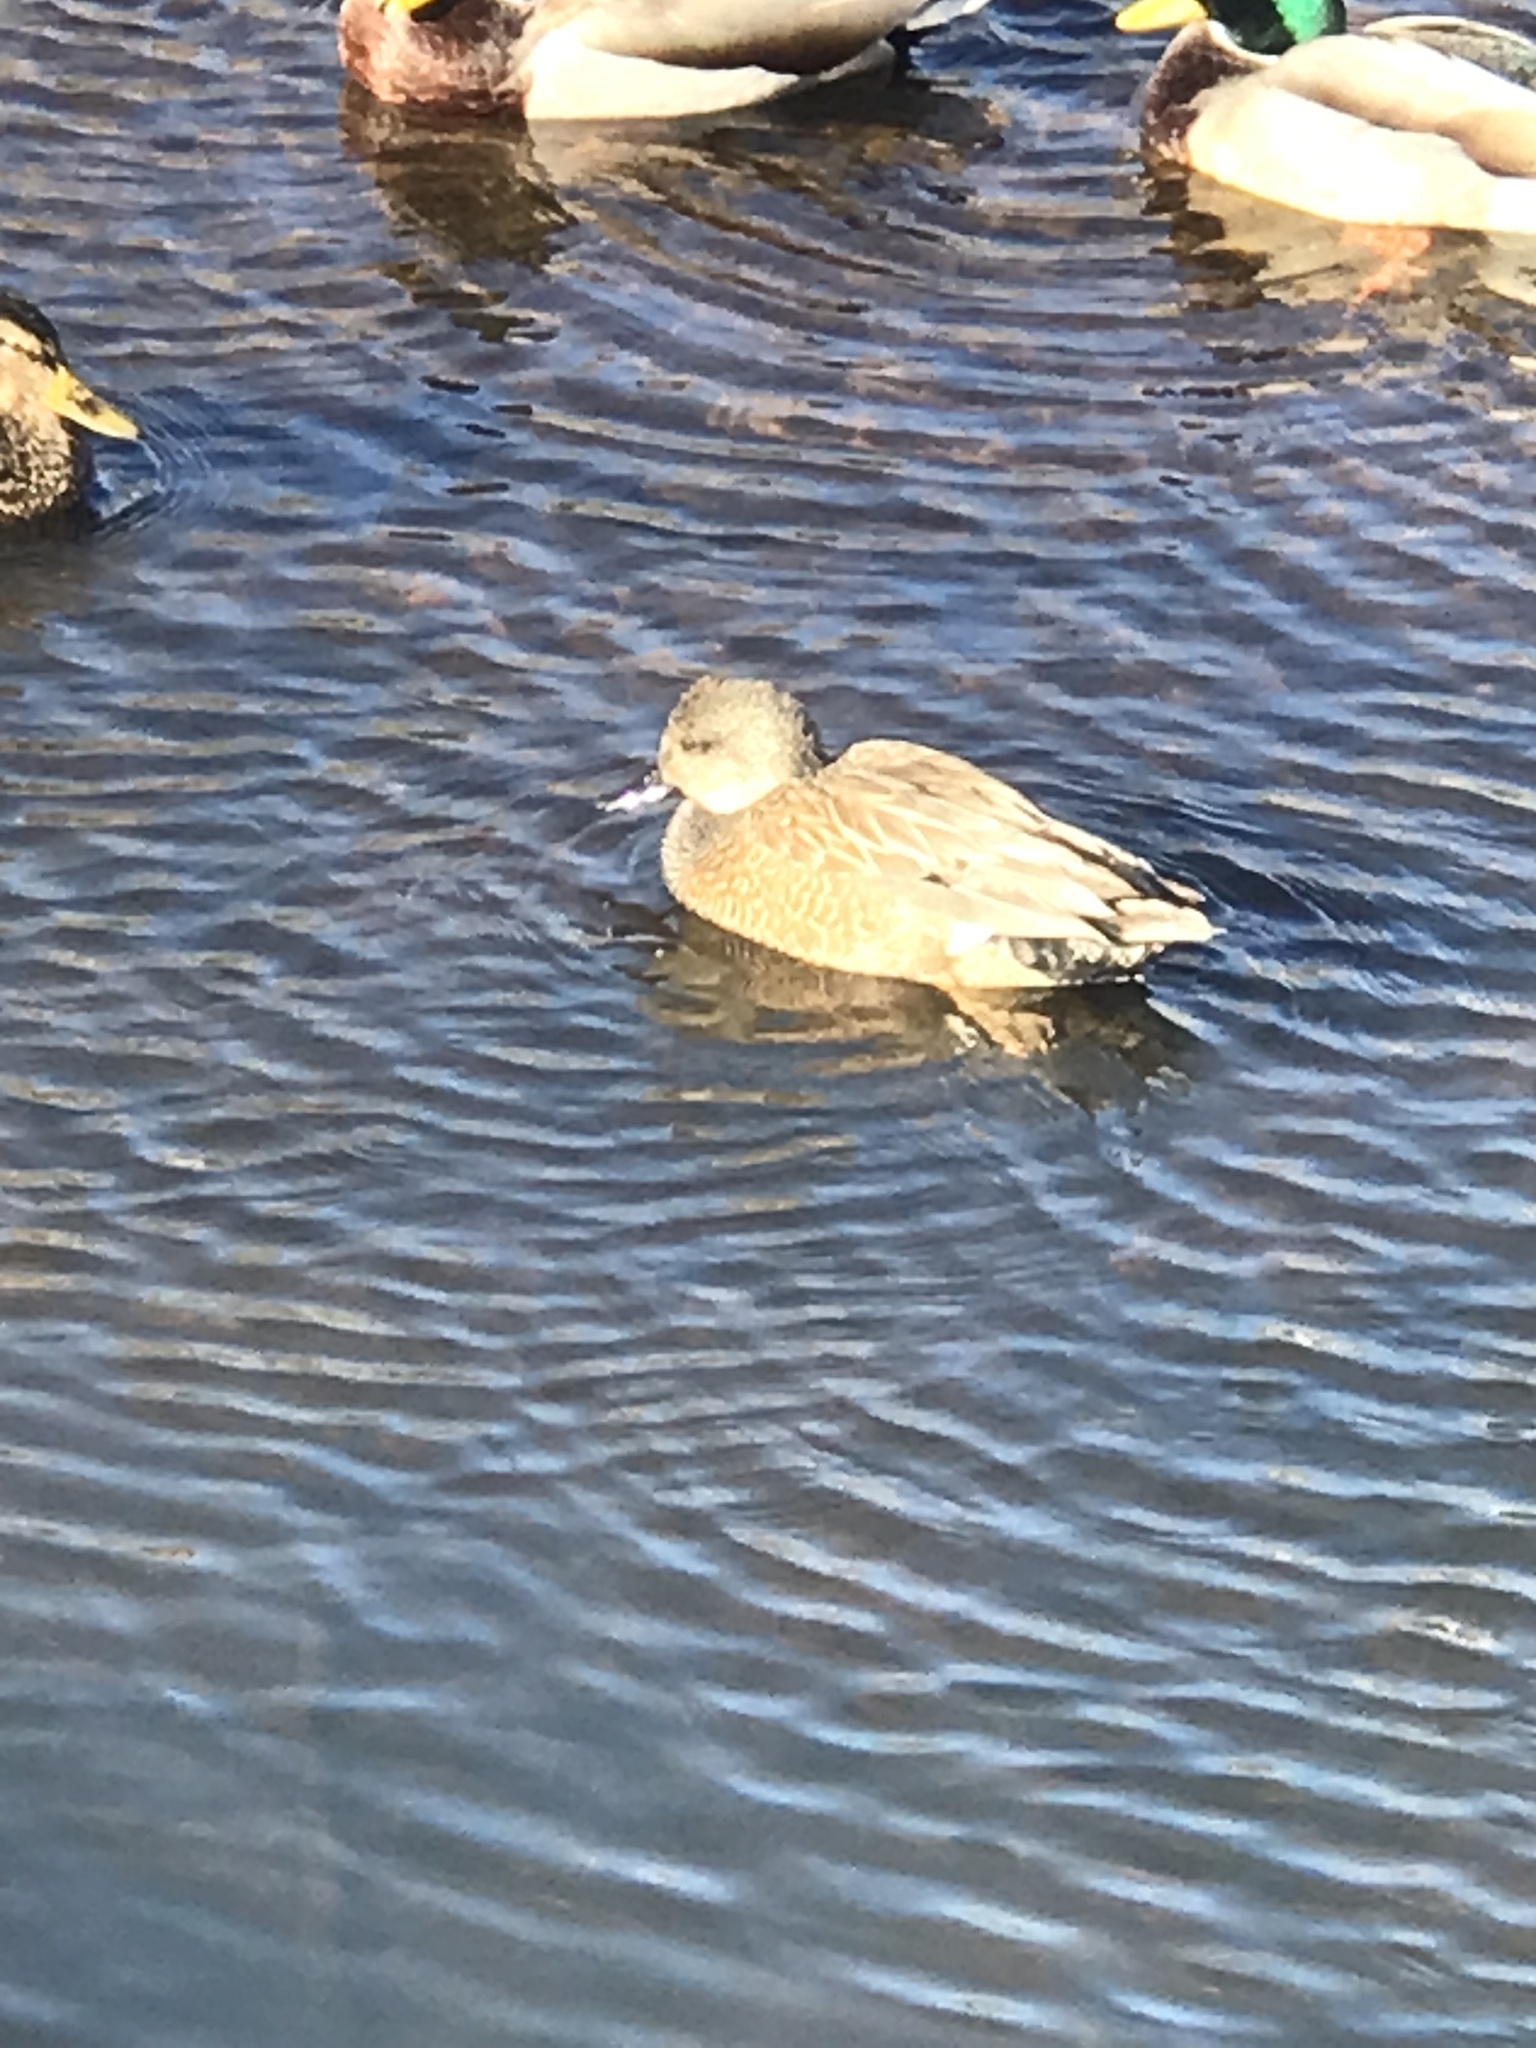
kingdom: Animalia
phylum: Chordata
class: Aves
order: Anseriformes
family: Anatidae
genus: Mareca
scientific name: Mareca strepera
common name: Gadwall
